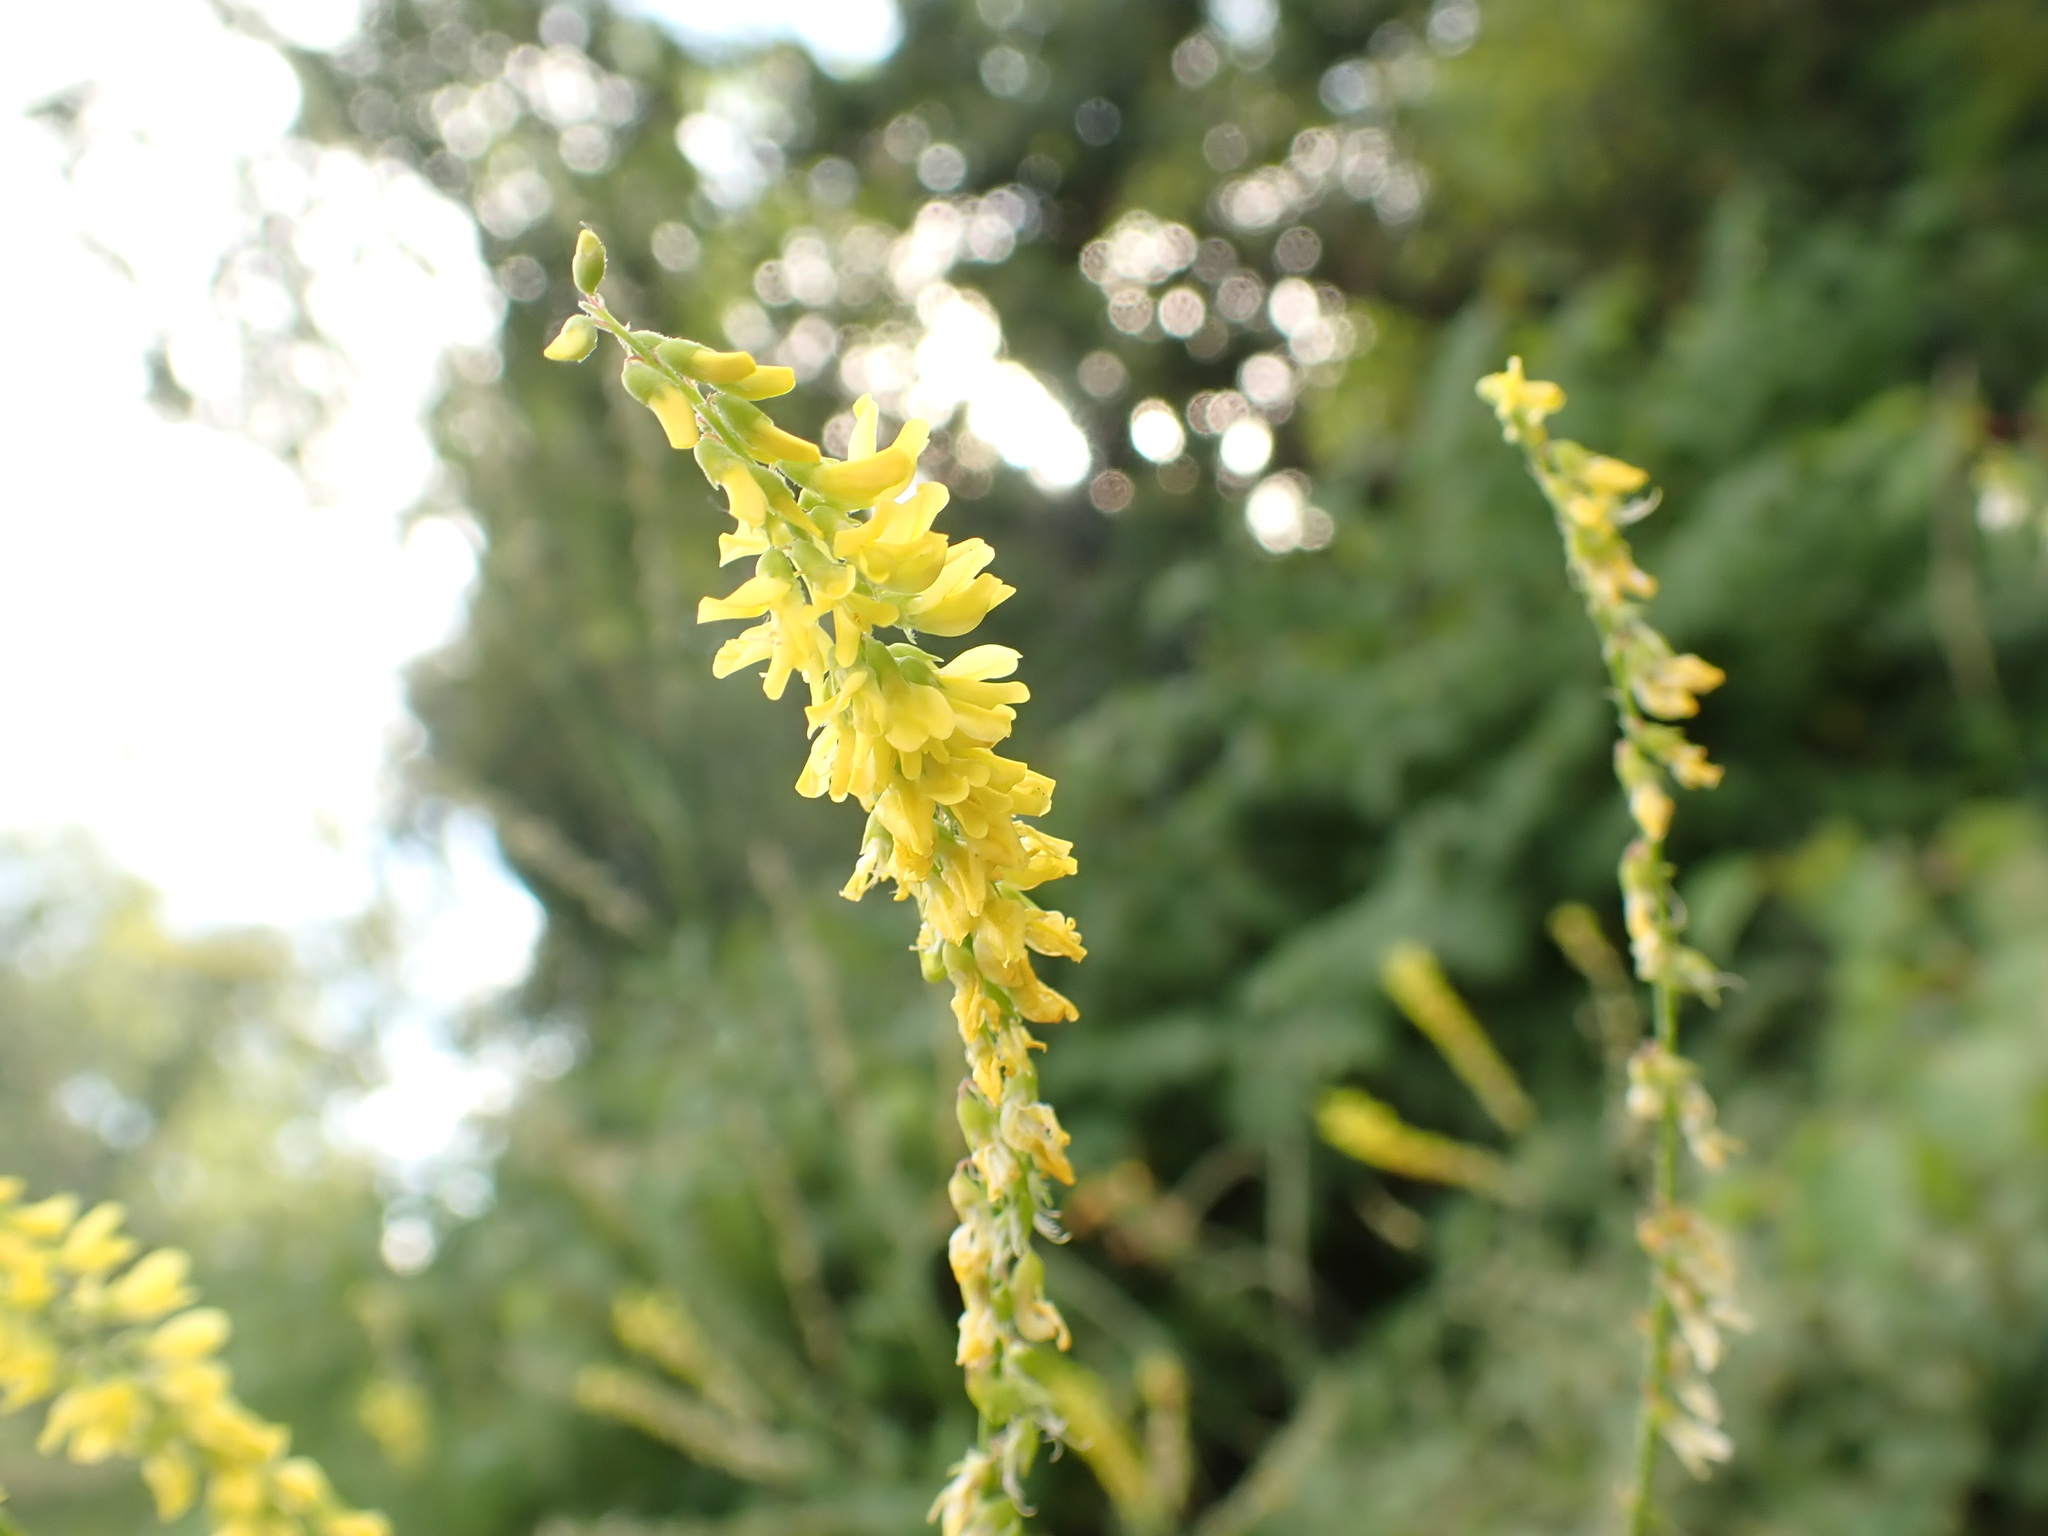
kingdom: Plantae
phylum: Tracheophyta
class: Magnoliopsida
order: Fabales
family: Fabaceae
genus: Melilotus
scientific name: Melilotus officinalis
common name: Sweetclover
